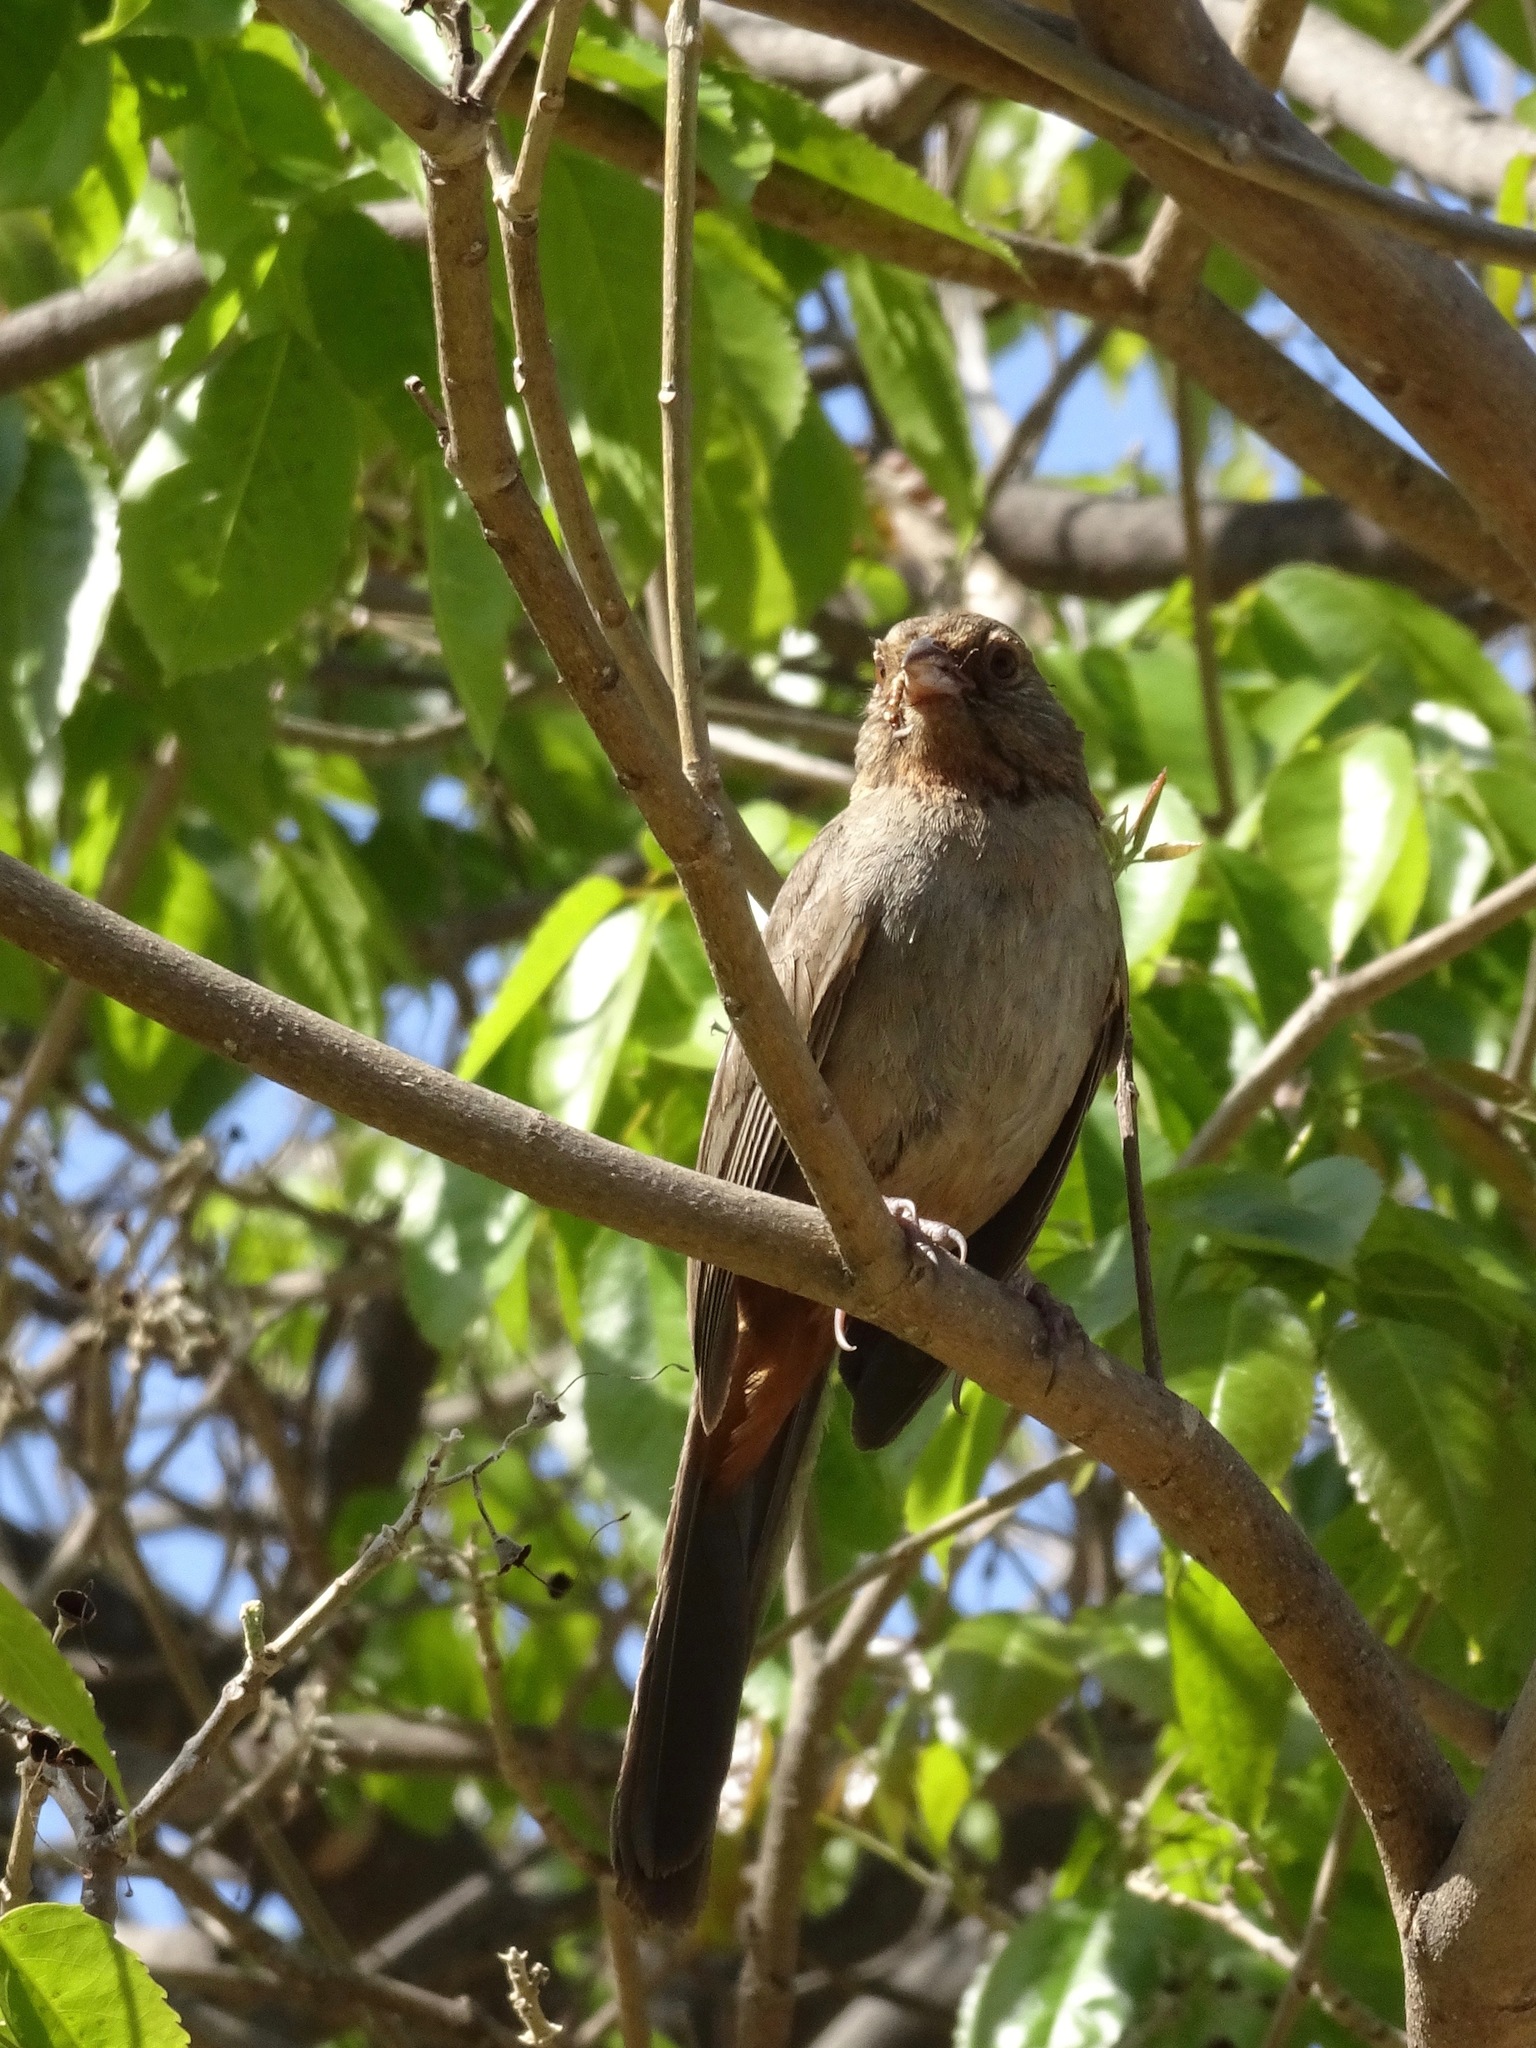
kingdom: Animalia
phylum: Chordata
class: Aves
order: Passeriformes
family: Passerellidae
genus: Melozone
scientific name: Melozone crissalis
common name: California towhee
